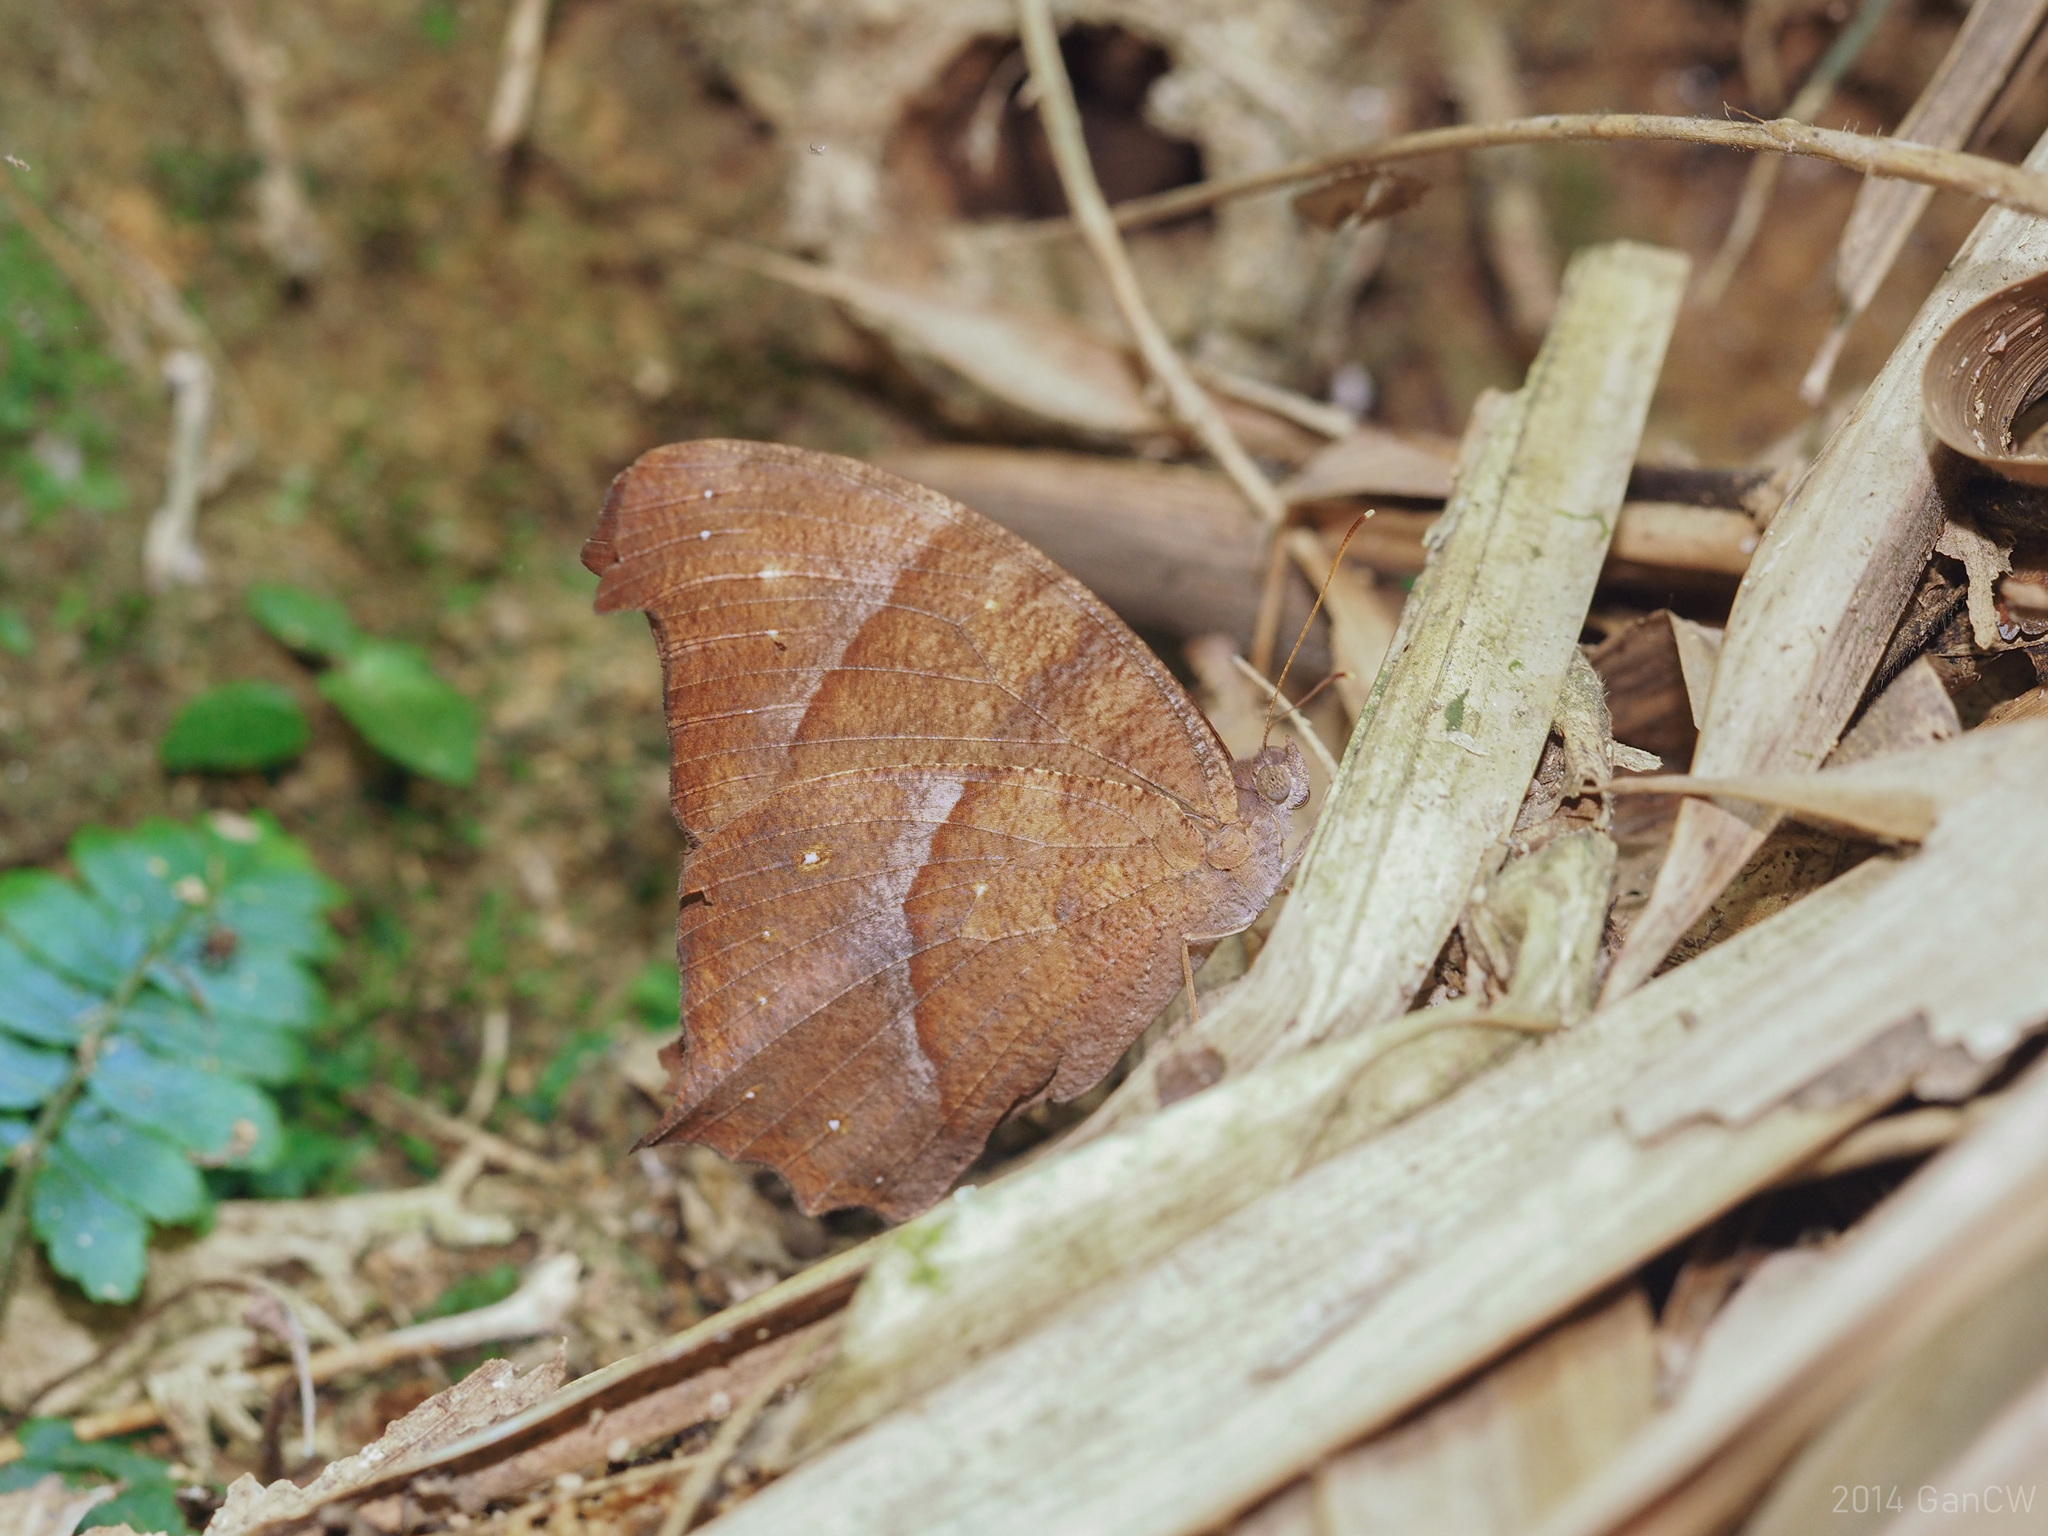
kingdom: Animalia
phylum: Arthropoda
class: Insecta
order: Lepidoptera
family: Nymphalidae
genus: Melanitis
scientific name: Melanitis phedima
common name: Dark evening brown
